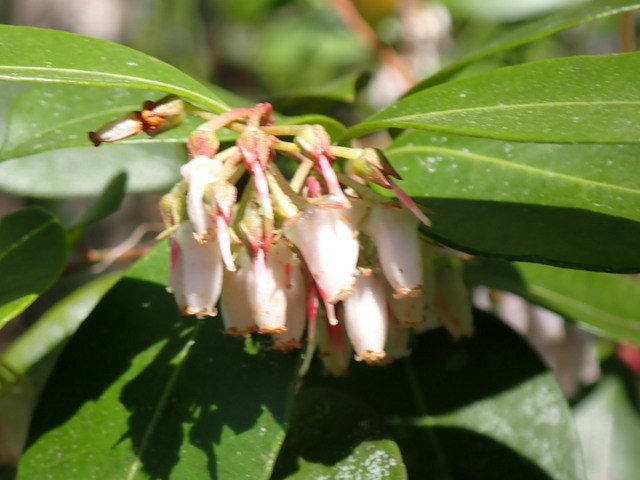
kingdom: Plantae
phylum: Tracheophyta
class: Magnoliopsida
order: Ericales
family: Ericaceae
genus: Lyonia
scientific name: Lyonia lucida
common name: Fetterbush
